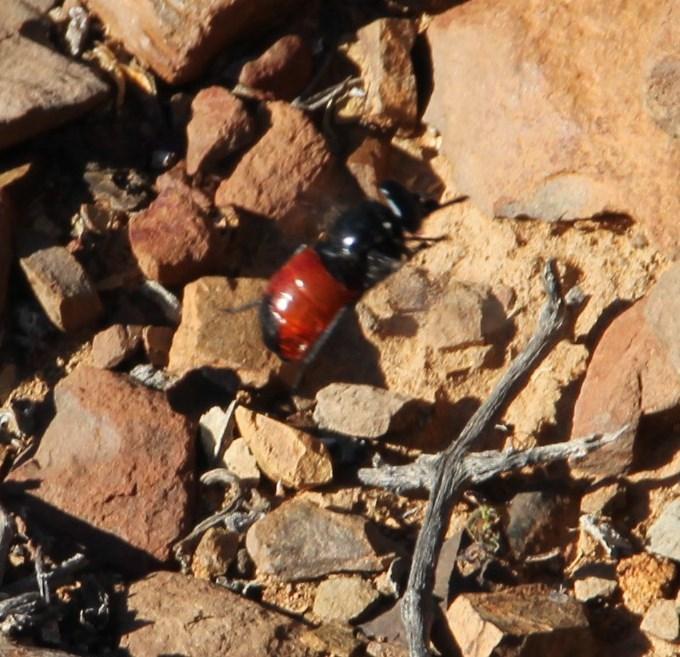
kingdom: Animalia
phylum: Arthropoda
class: Insecta
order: Diptera
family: Tabanidae
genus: Philoliche
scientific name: Philoliche lugens
